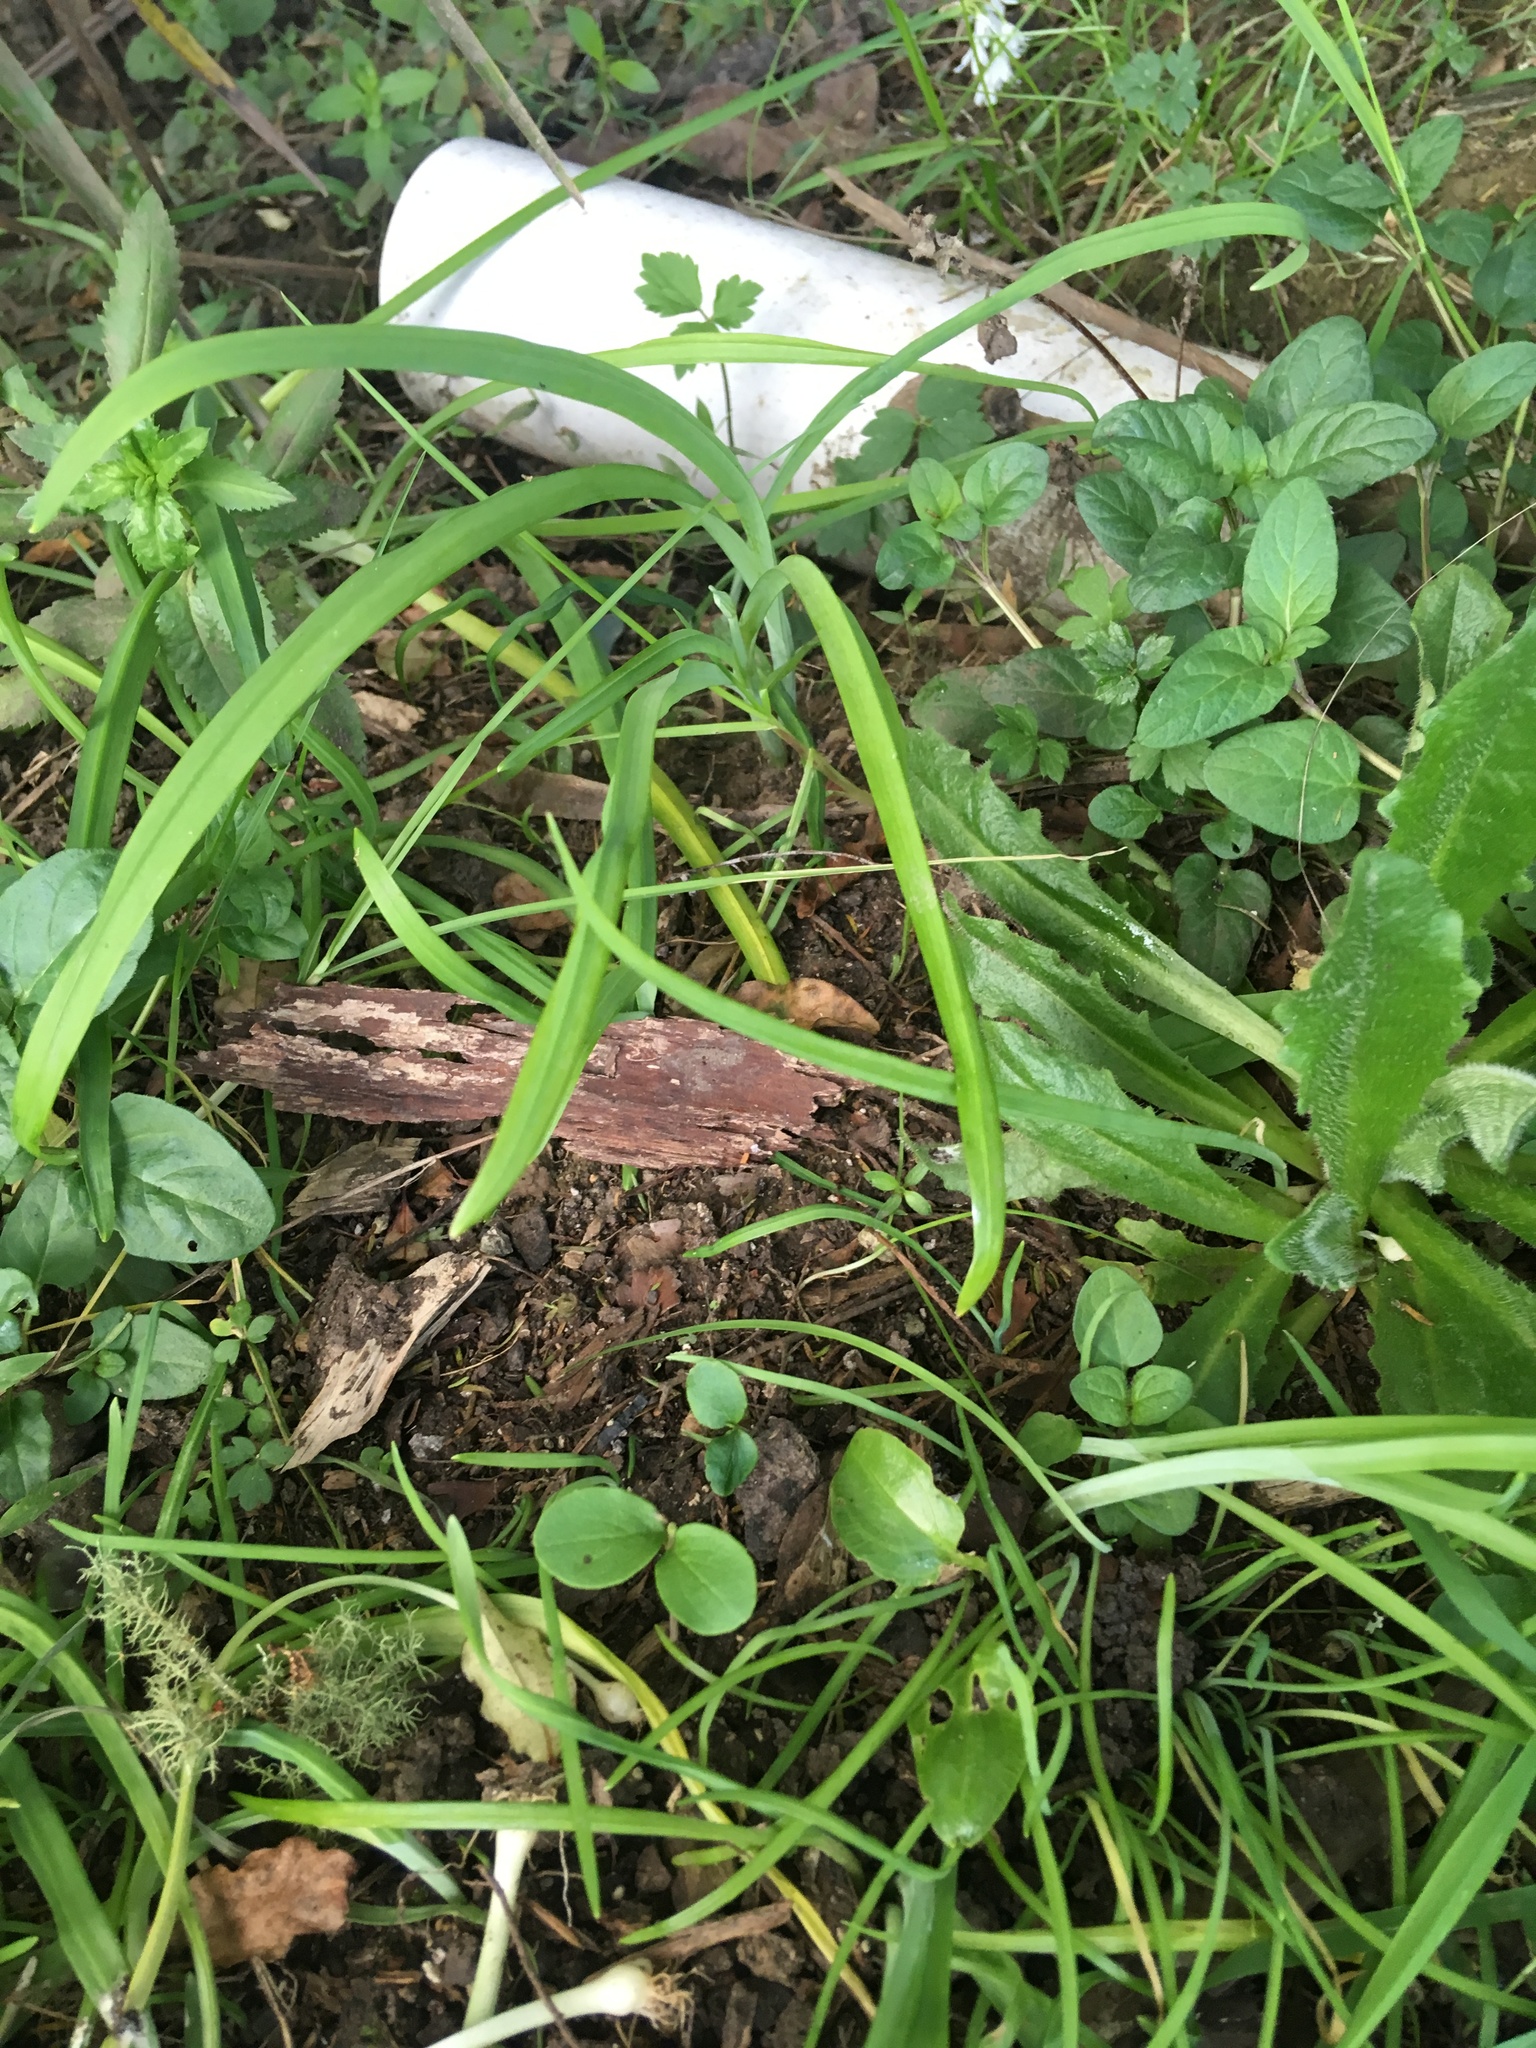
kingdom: Plantae
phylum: Tracheophyta
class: Magnoliopsida
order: Lamiales
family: Oleaceae
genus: Ligustrum
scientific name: Ligustrum sinense
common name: Chinese privet
